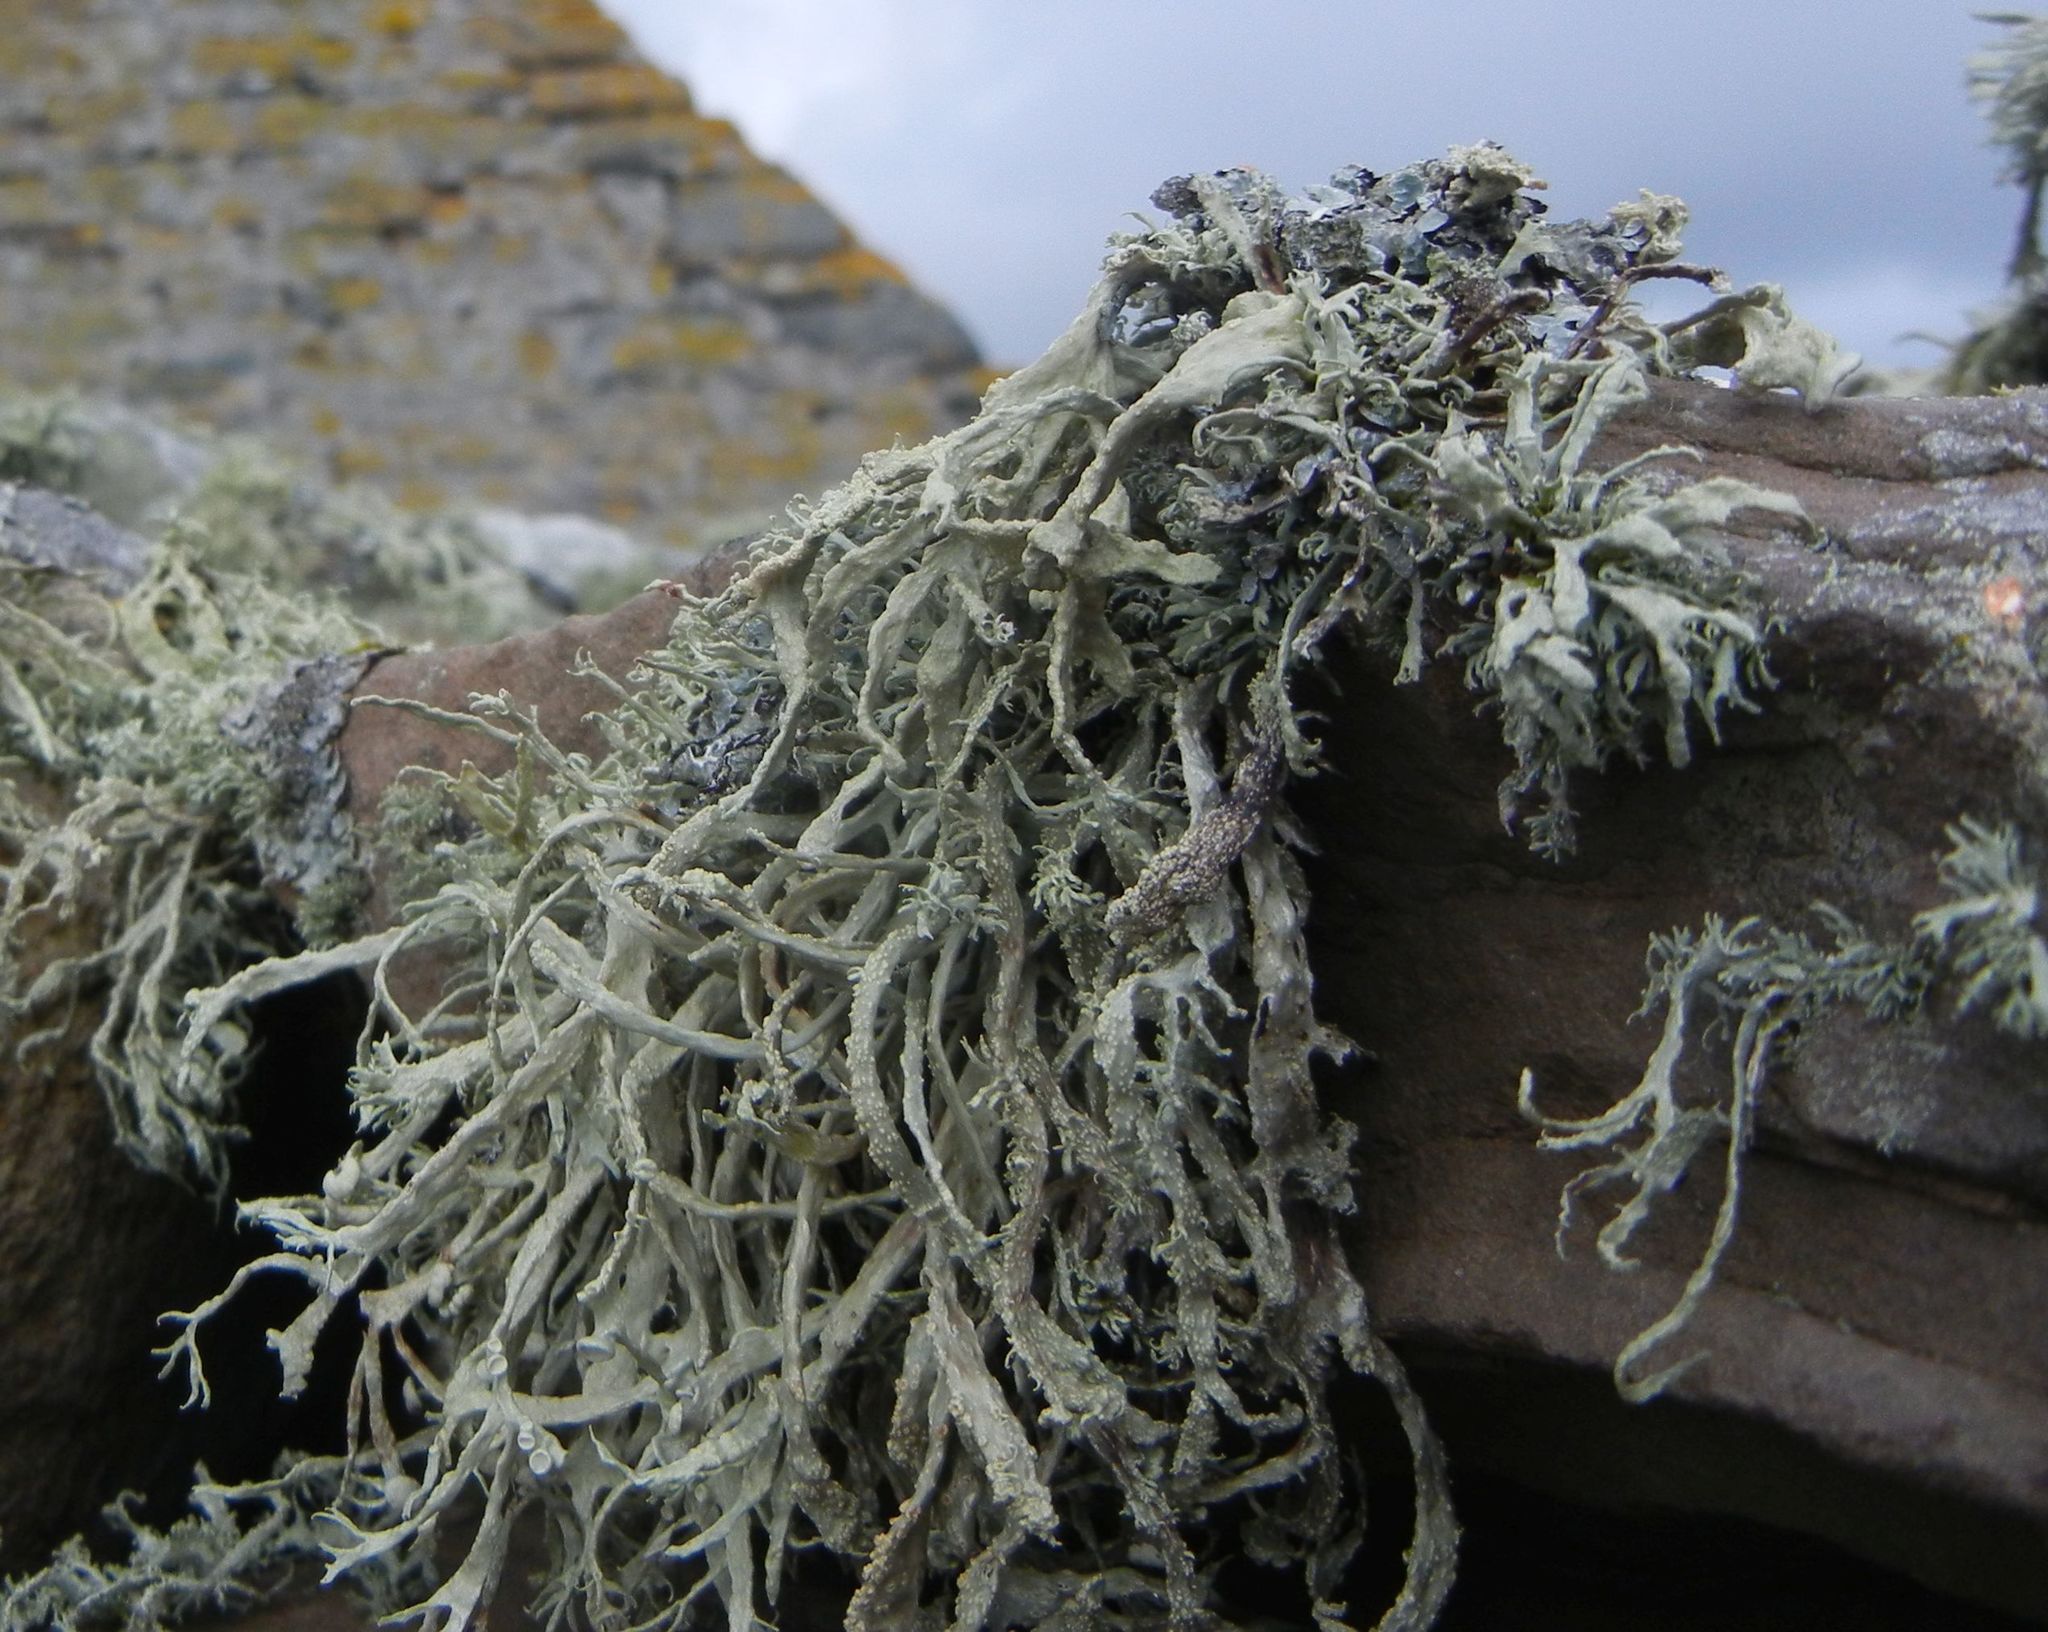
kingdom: Fungi
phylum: Ascomycota
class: Lecanoromycetes
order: Lecanorales
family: Ramalinaceae
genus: Ramalina
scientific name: Ramalina siliquosa
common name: Sea ivory
